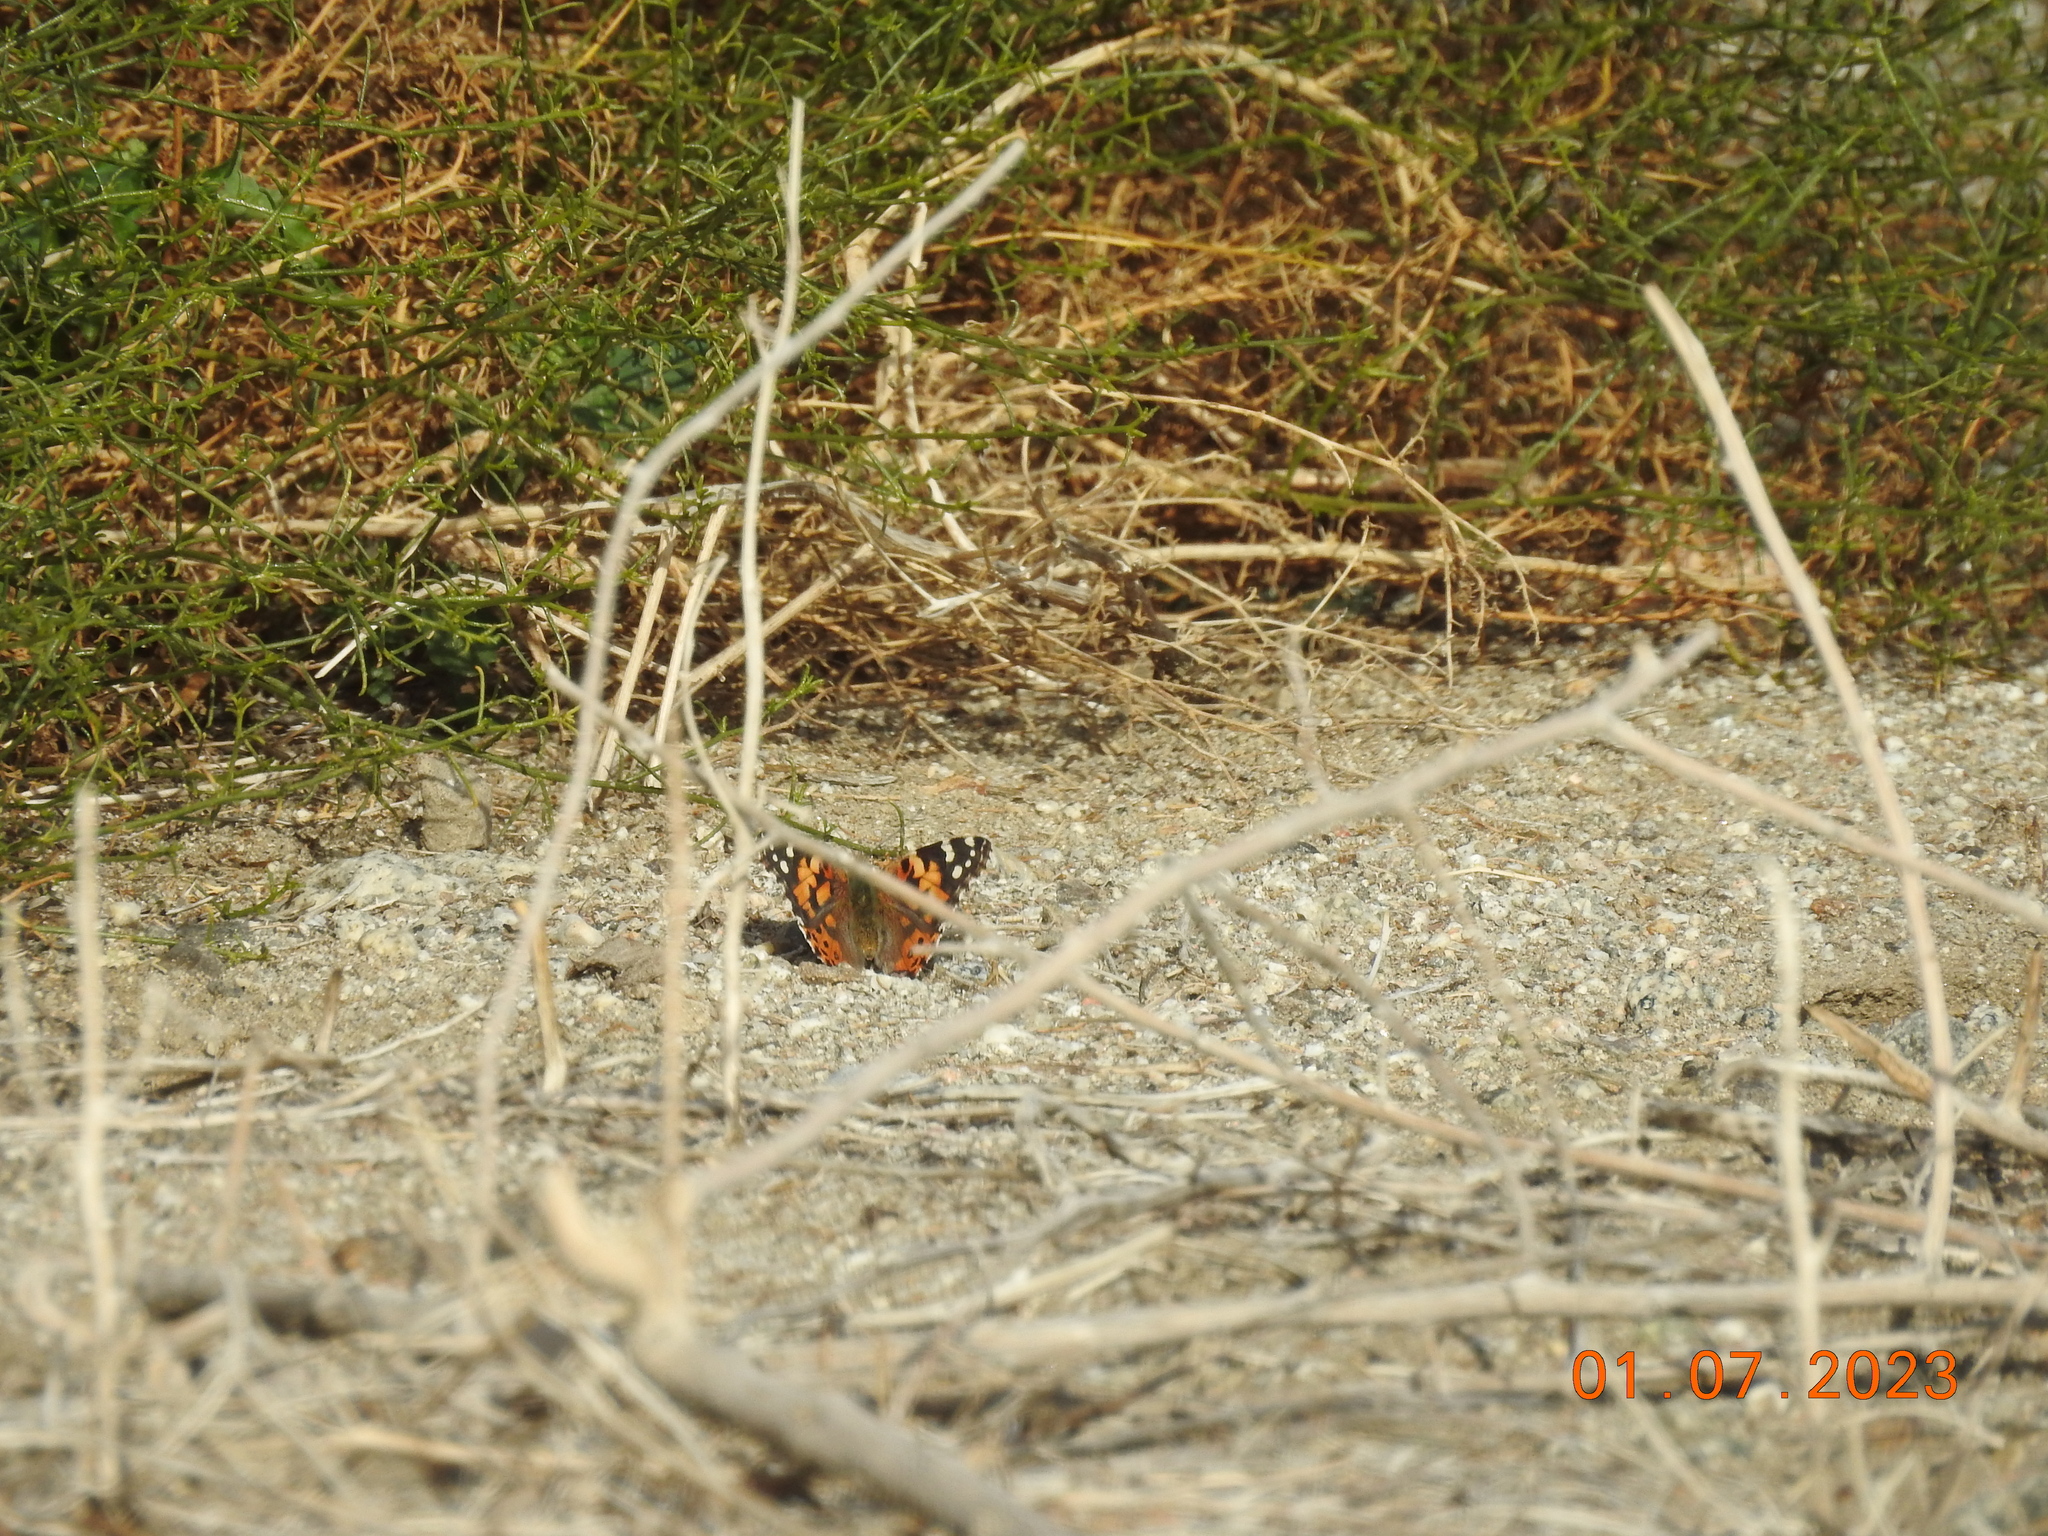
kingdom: Animalia
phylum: Arthropoda
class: Insecta
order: Lepidoptera
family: Nymphalidae
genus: Vanessa
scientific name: Vanessa cardui
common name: Painted lady
